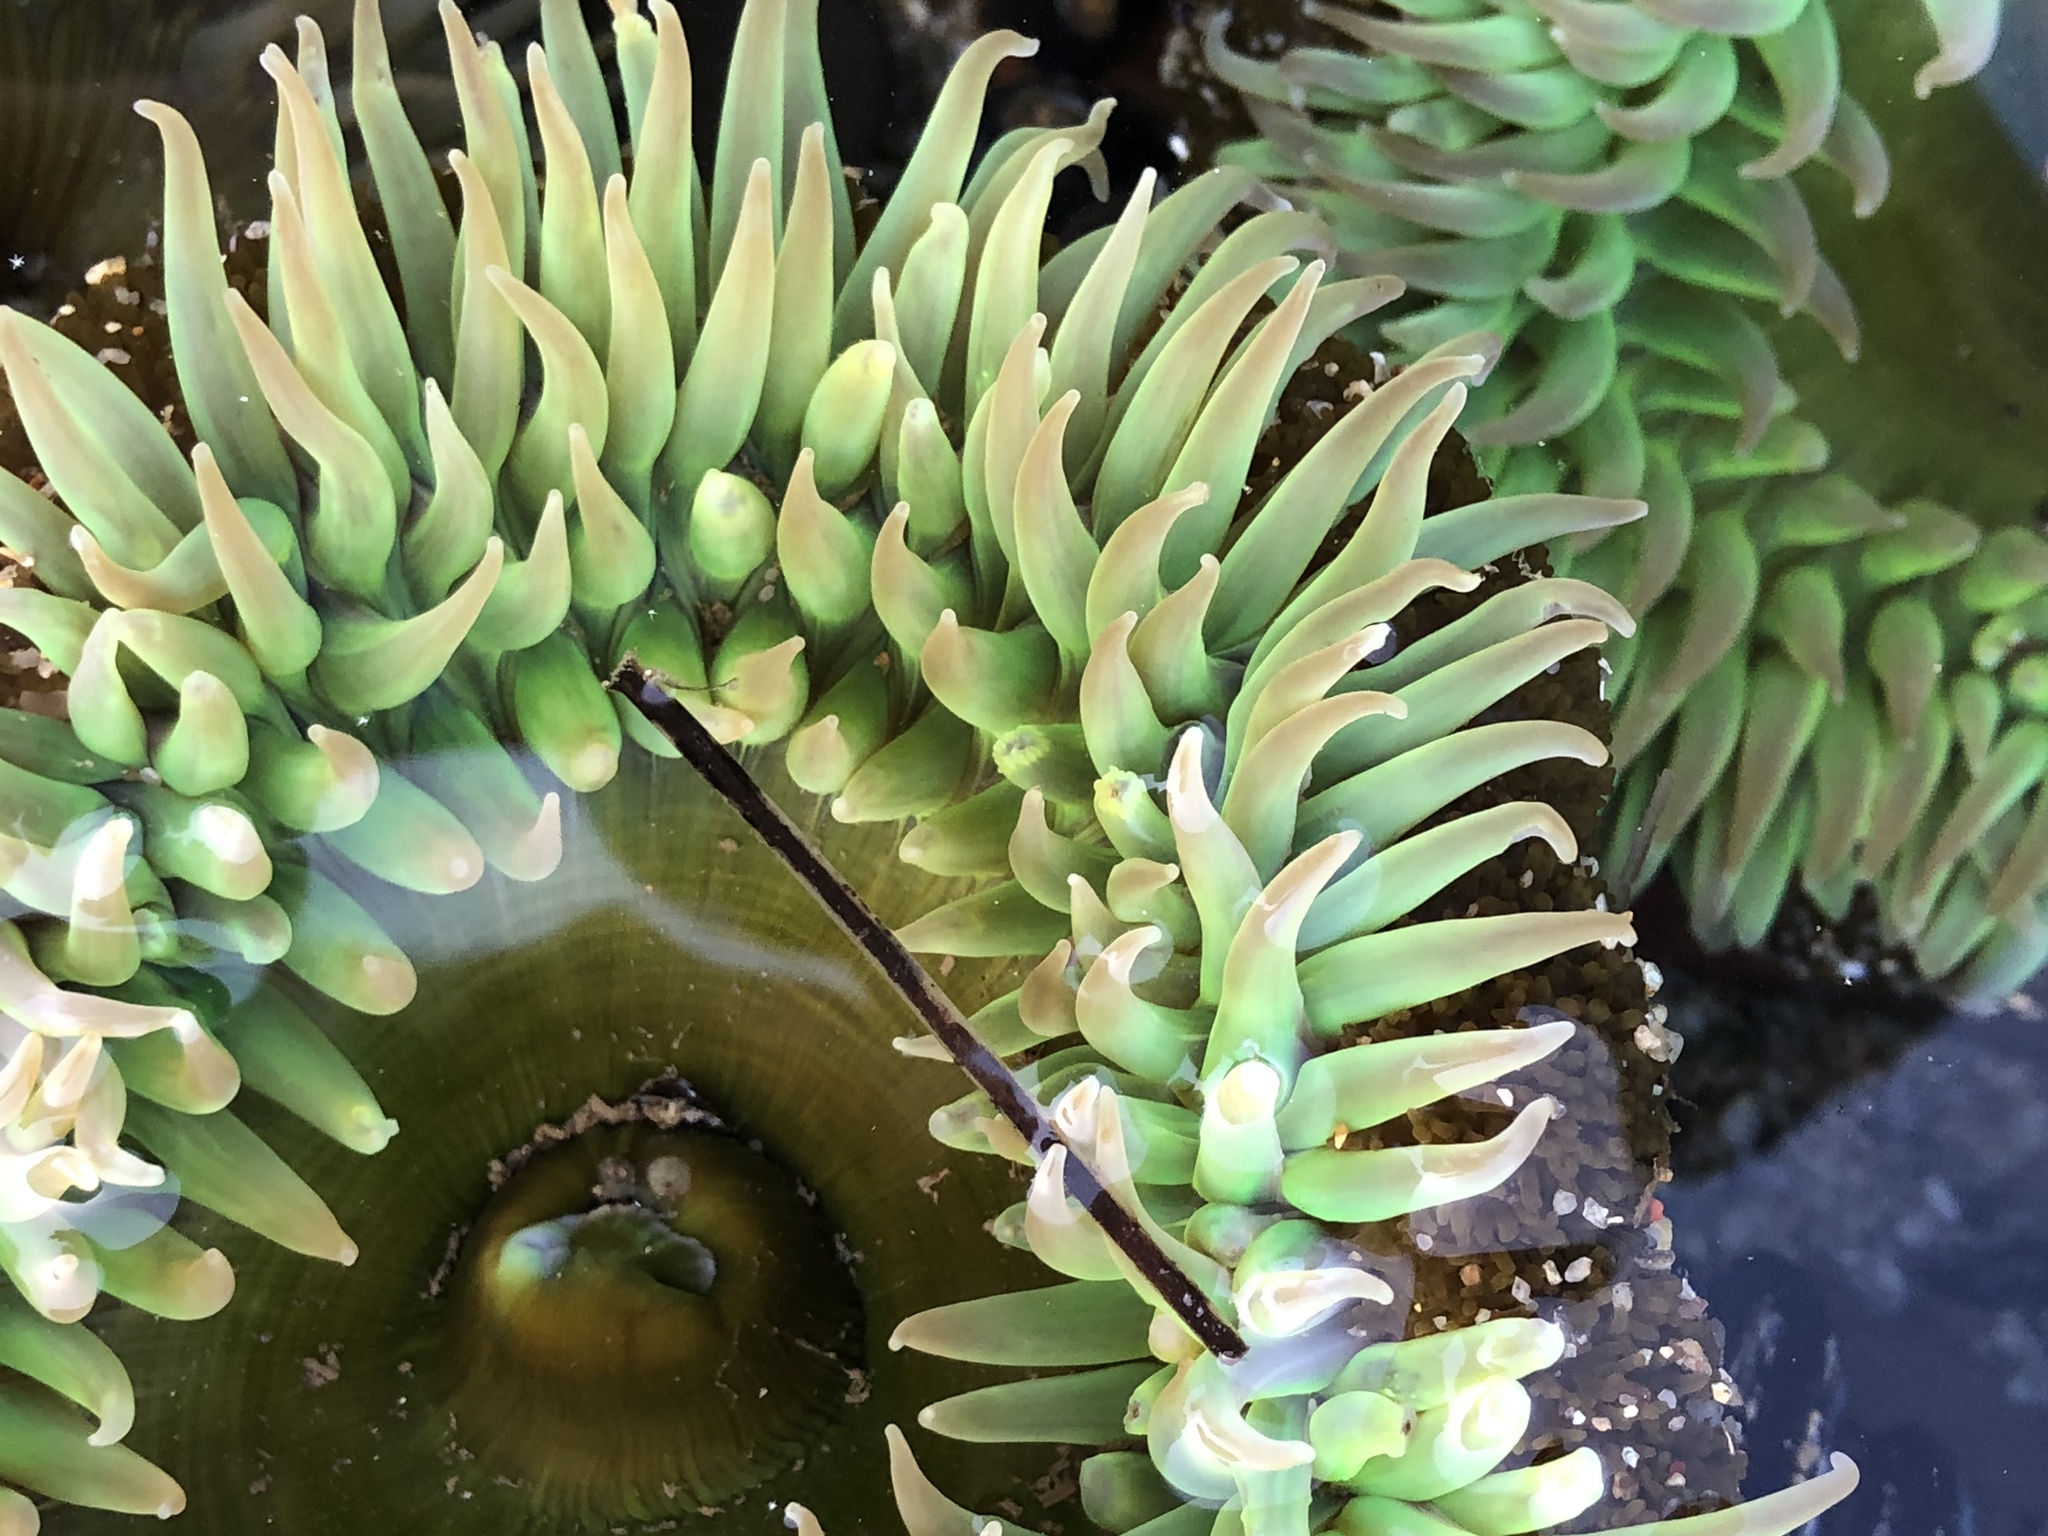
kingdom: Animalia
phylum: Cnidaria
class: Anthozoa
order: Actiniaria
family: Actiniidae
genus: Anthopleura
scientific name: Anthopleura xanthogrammica
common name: Giant green anemone
